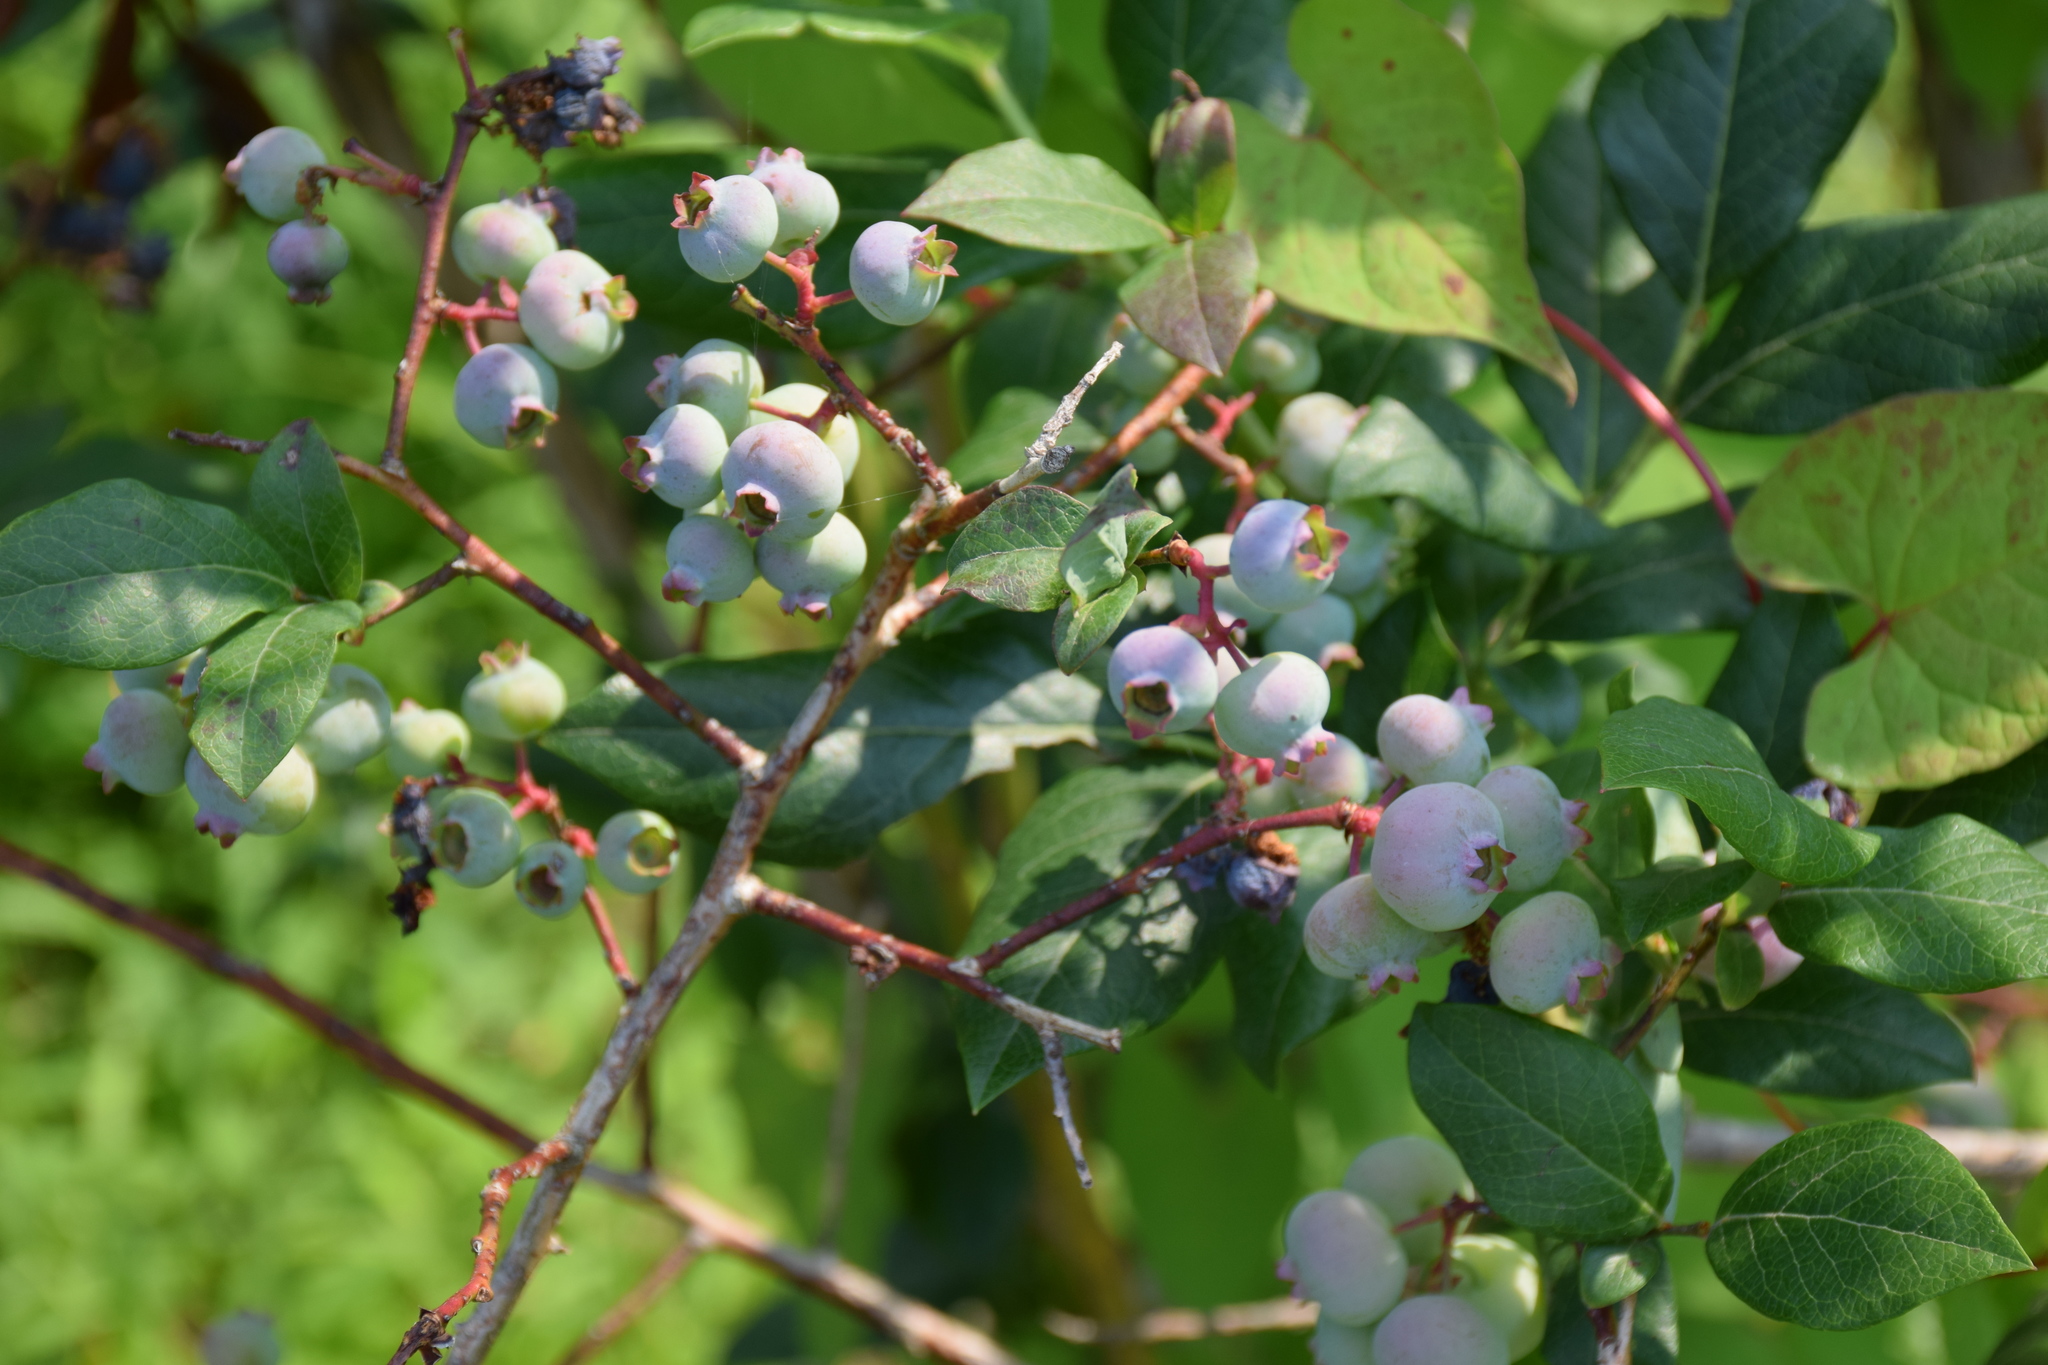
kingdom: Plantae
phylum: Tracheophyta
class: Magnoliopsida
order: Ericales
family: Ericaceae
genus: Vaccinium
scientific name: Vaccinium corymbosum
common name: Blueberry
